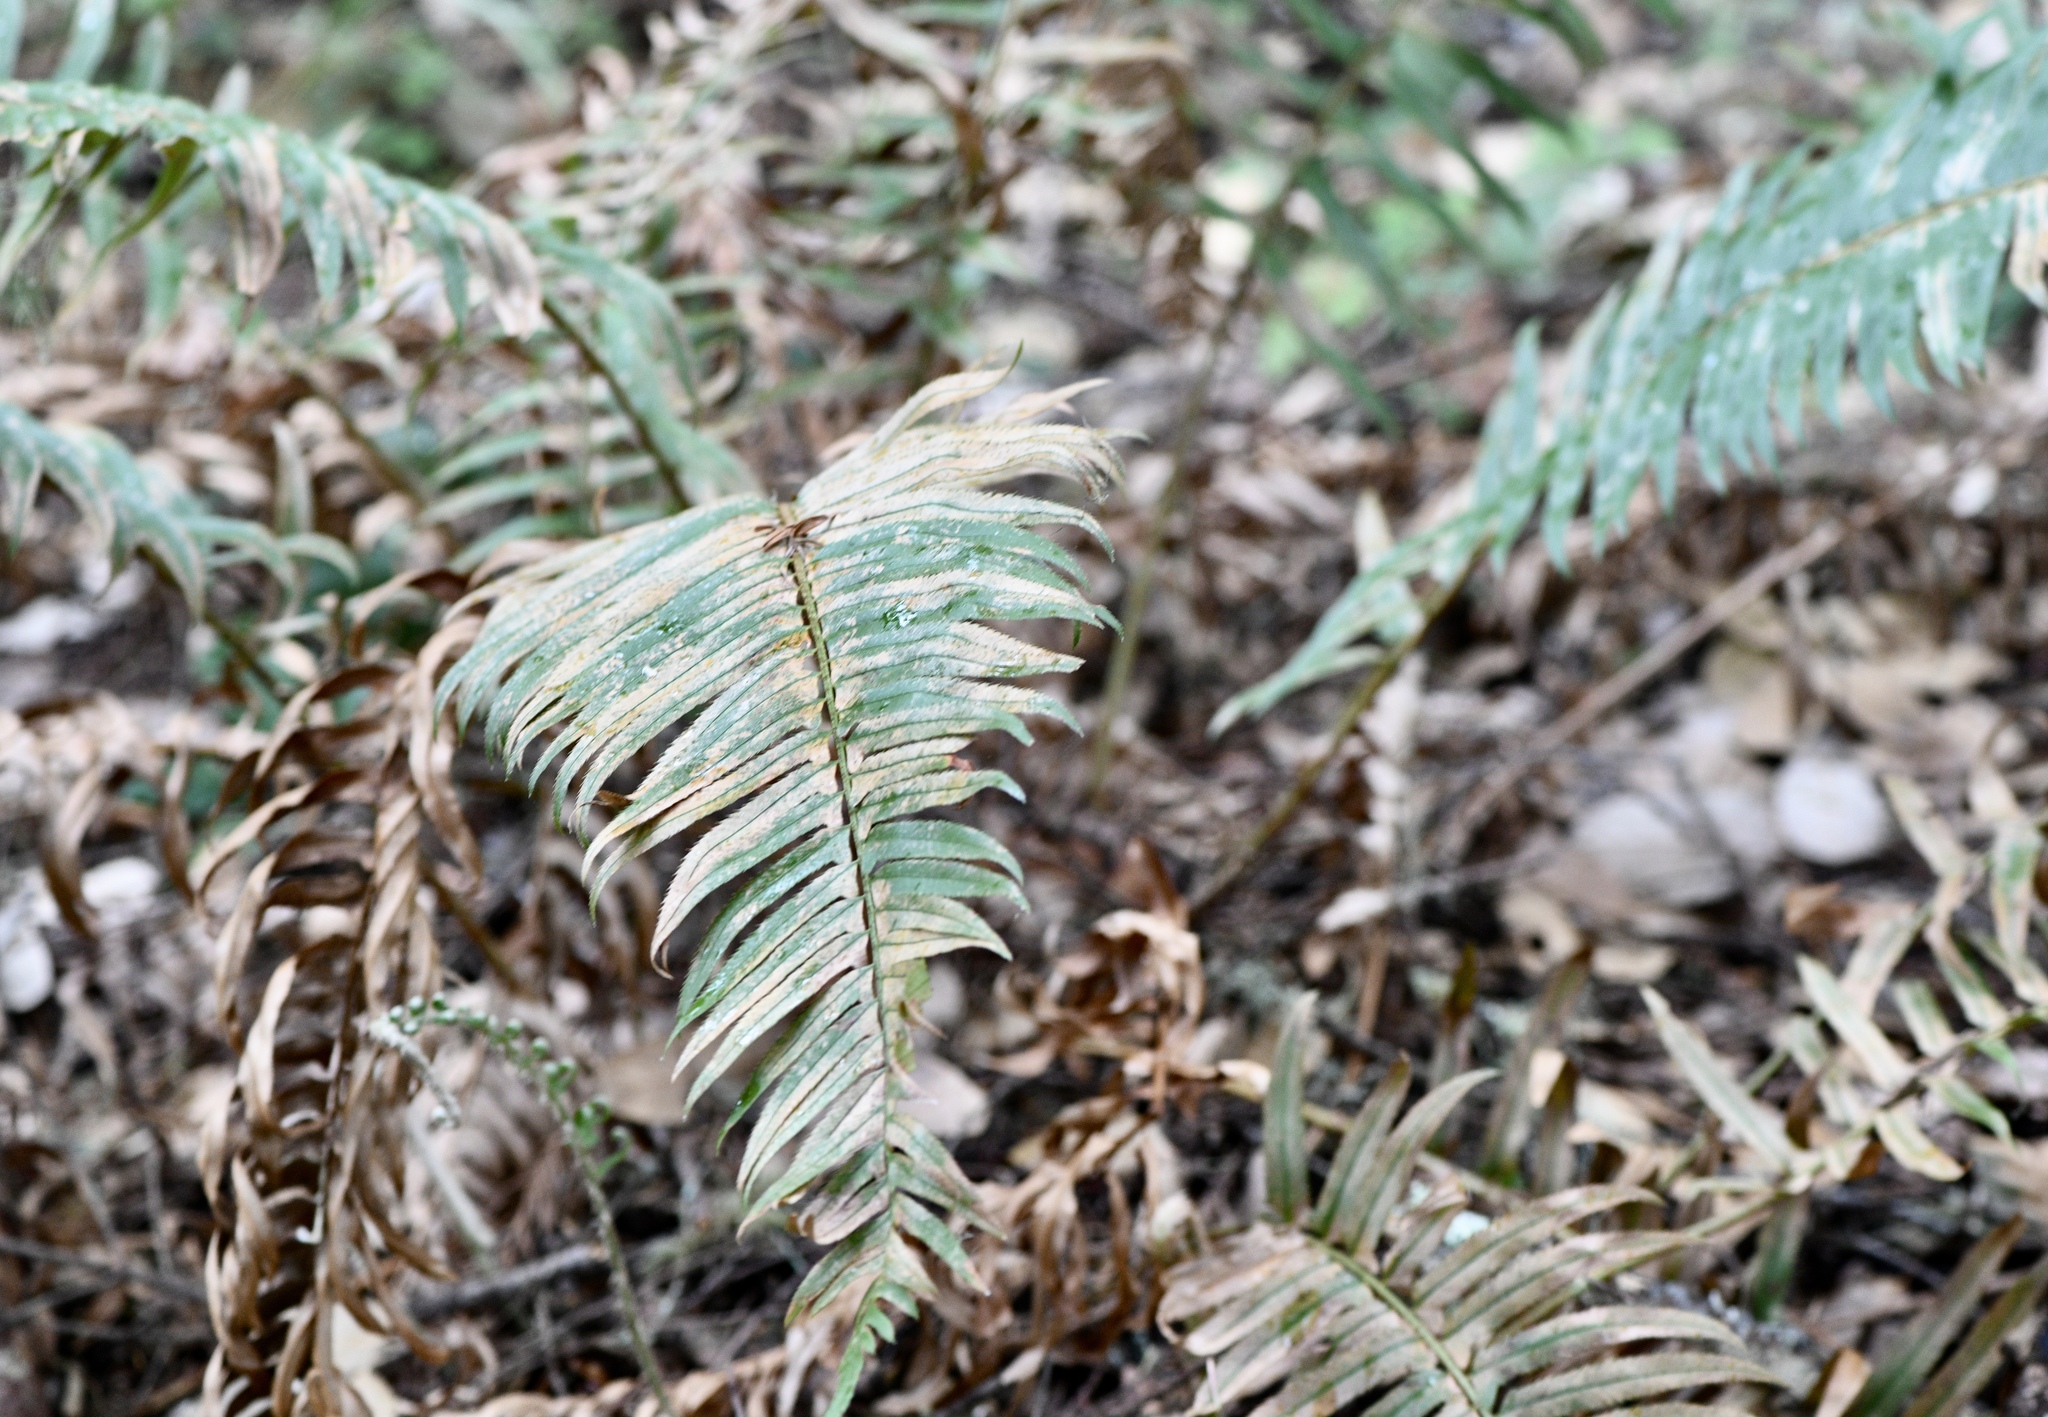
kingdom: Plantae
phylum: Tracheophyta
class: Polypodiopsida
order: Polypodiales
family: Dryopteridaceae
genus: Polystichum
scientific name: Polystichum munitum
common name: Western sword-fern
